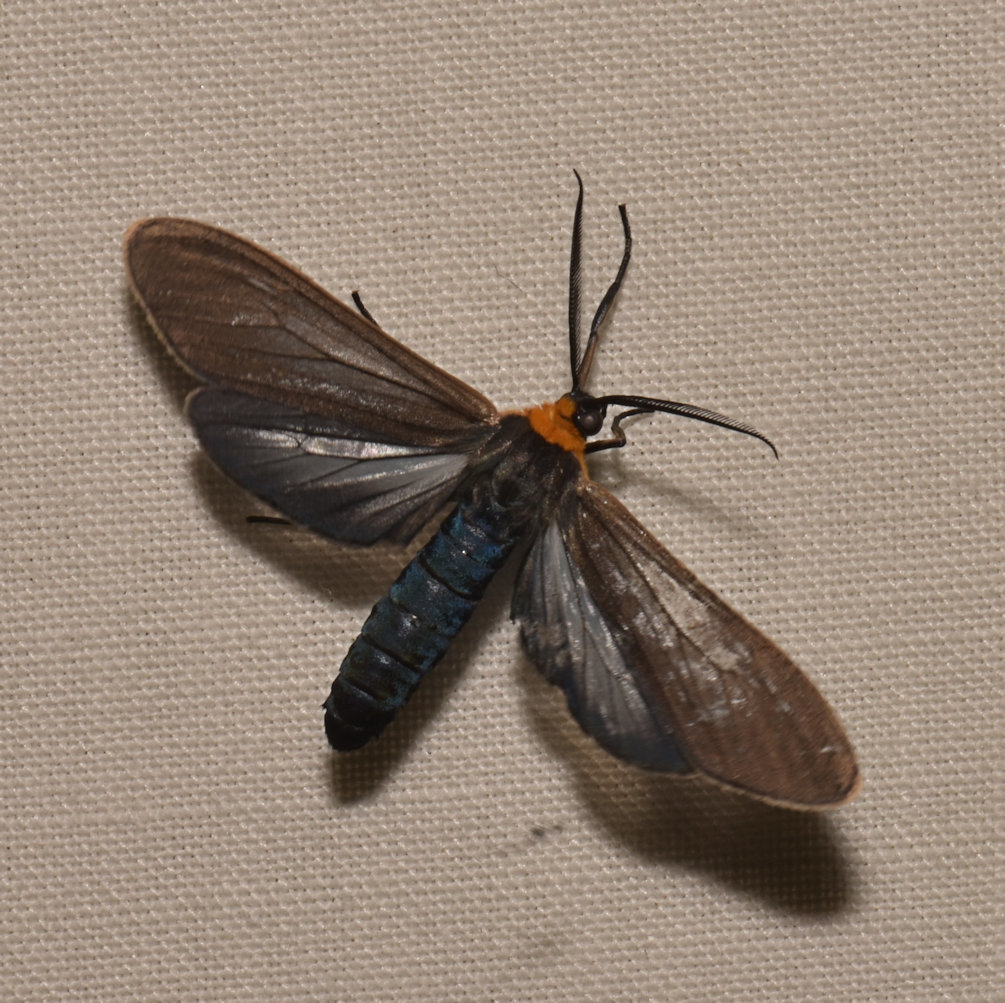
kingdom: Animalia
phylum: Arthropoda
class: Insecta
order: Lepidoptera
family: Erebidae
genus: Cisseps
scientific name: Cisseps fulvicollis
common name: Yellow-collared scape moth
